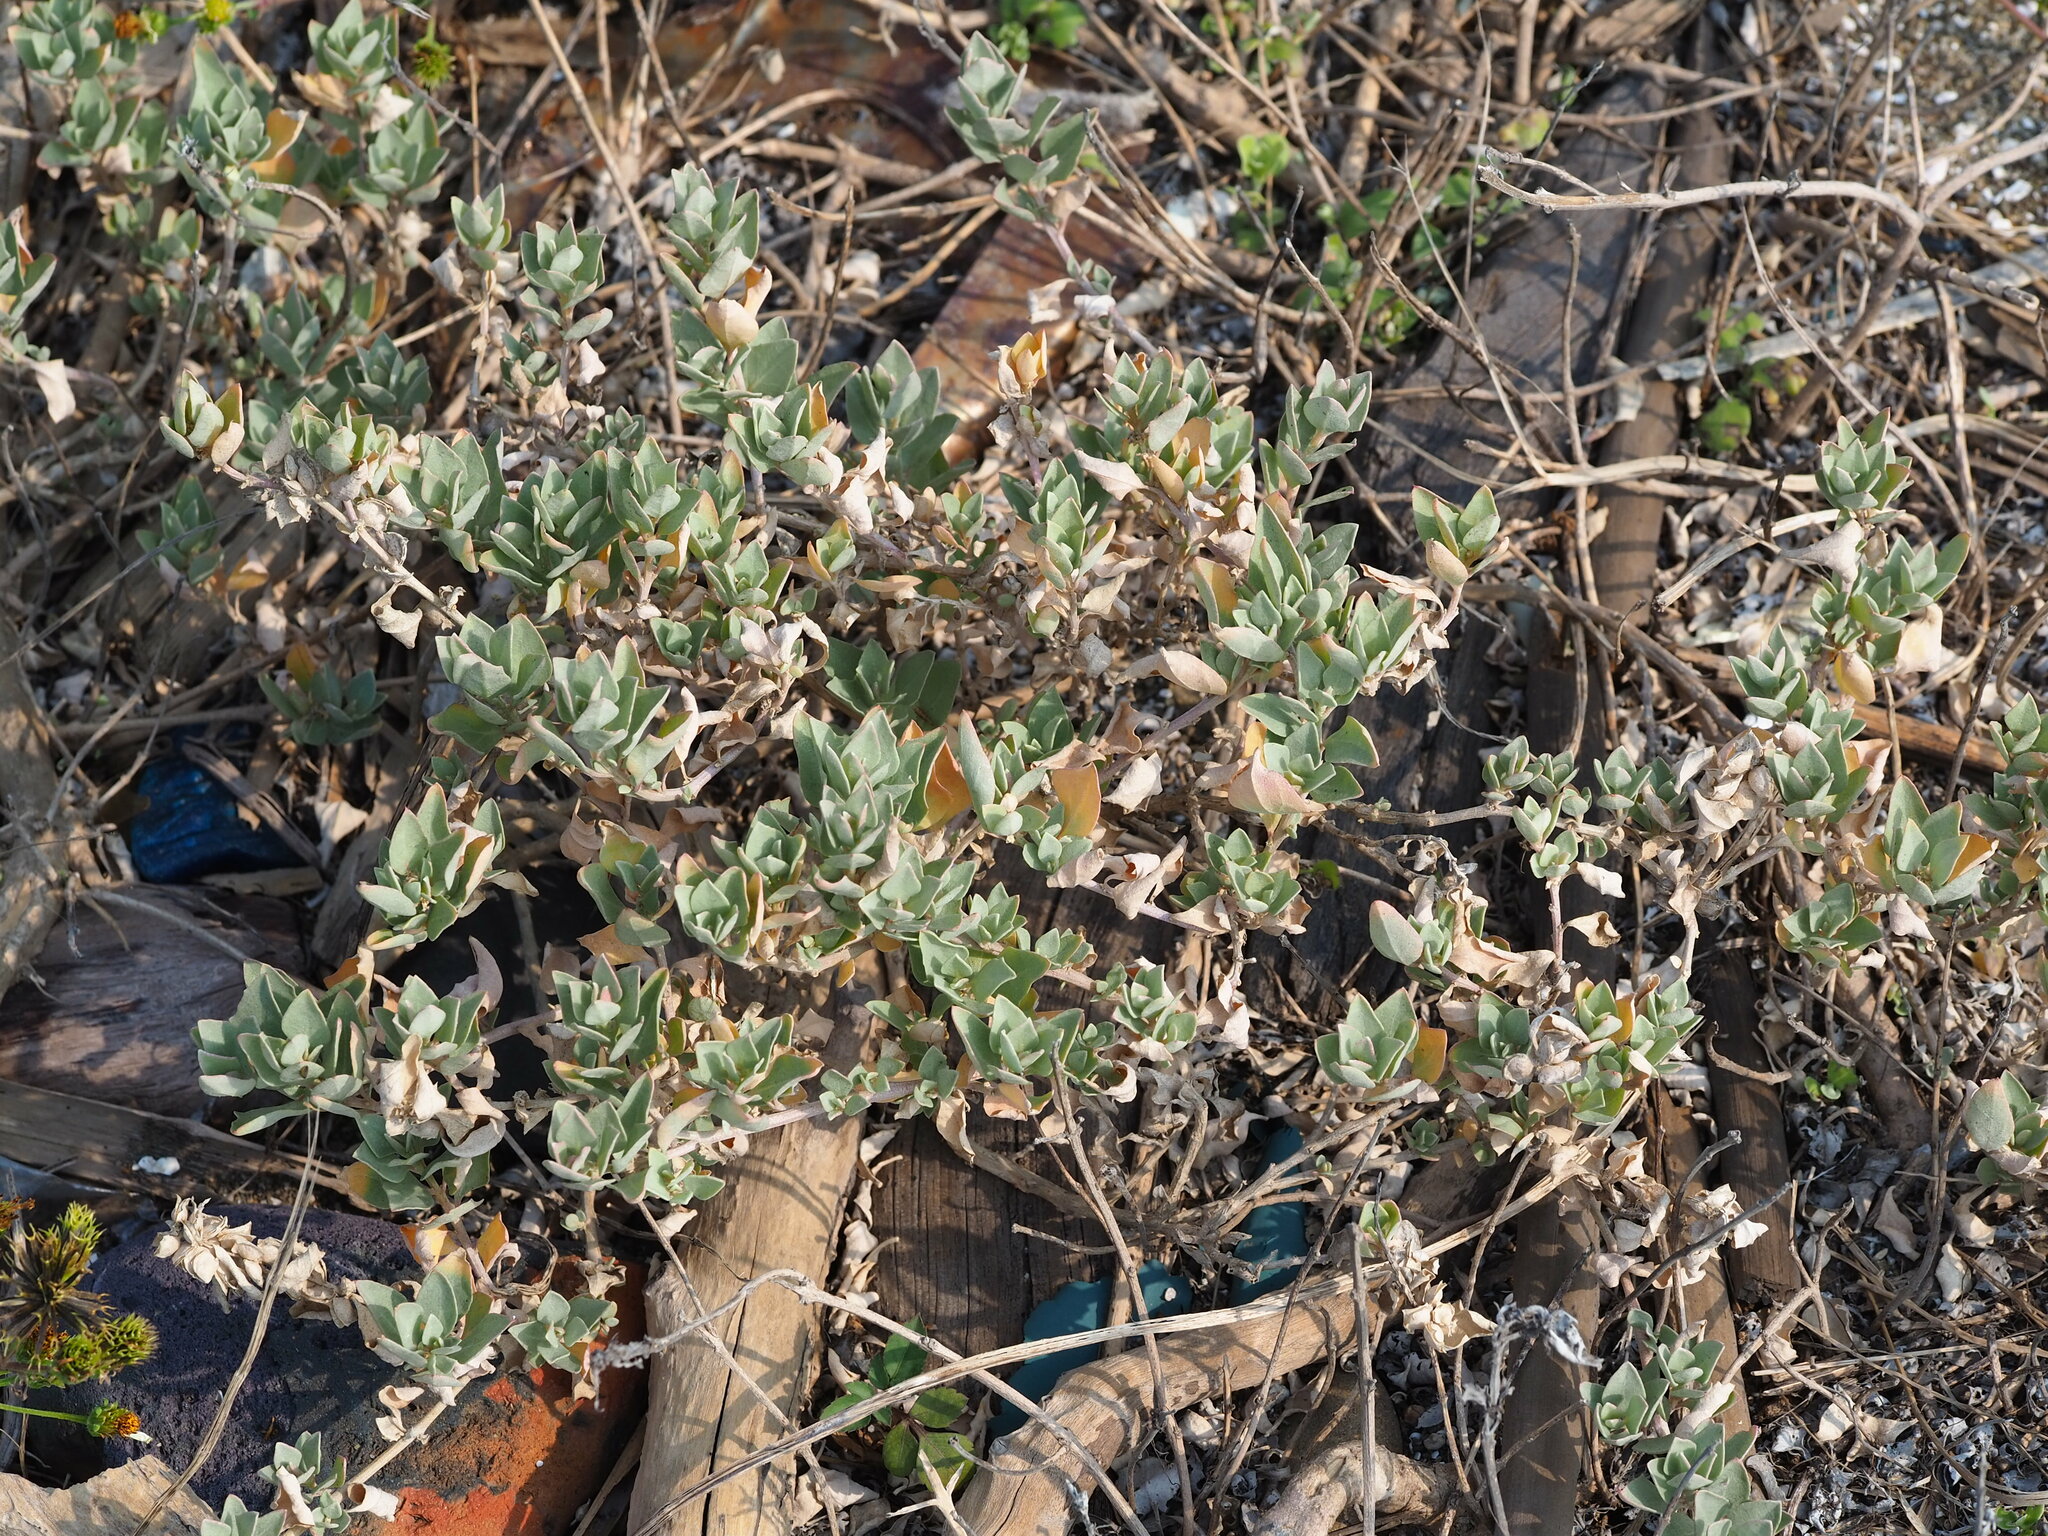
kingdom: Plantae
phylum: Tracheophyta
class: Magnoliopsida
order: Caryophyllales
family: Amaranthaceae
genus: Atriplex
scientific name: Atriplex maximowicziana
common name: Maximowicz's saltbush
